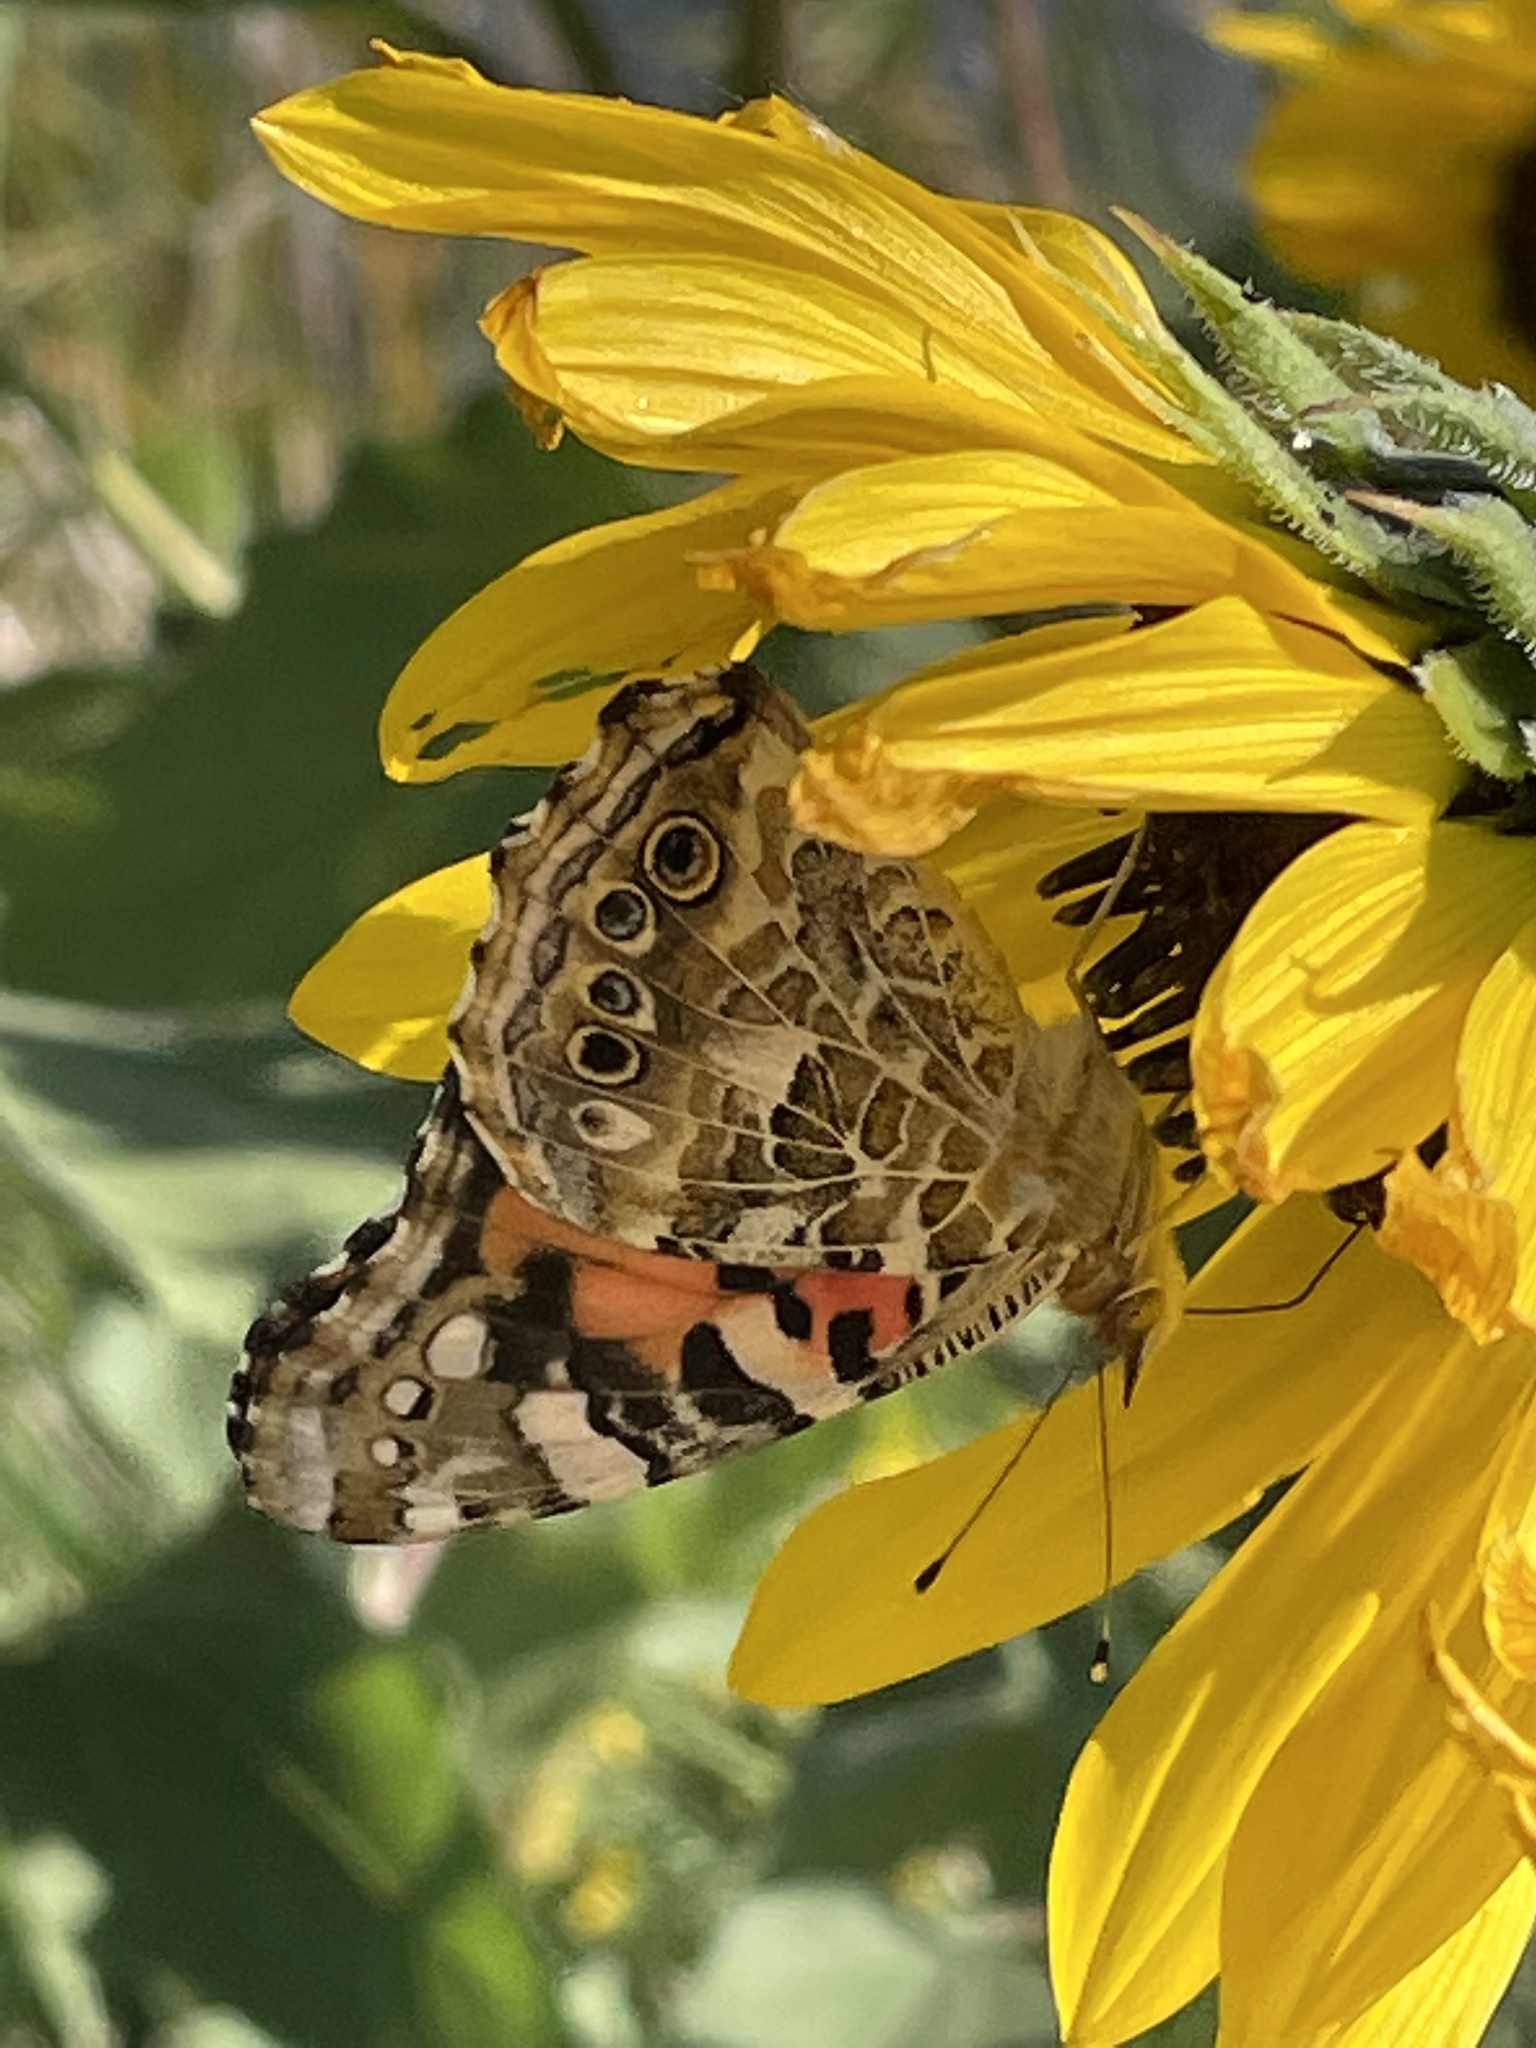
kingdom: Animalia
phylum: Arthropoda
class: Insecta
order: Lepidoptera
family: Nymphalidae
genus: Vanessa
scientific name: Vanessa cardui
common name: Painted lady
